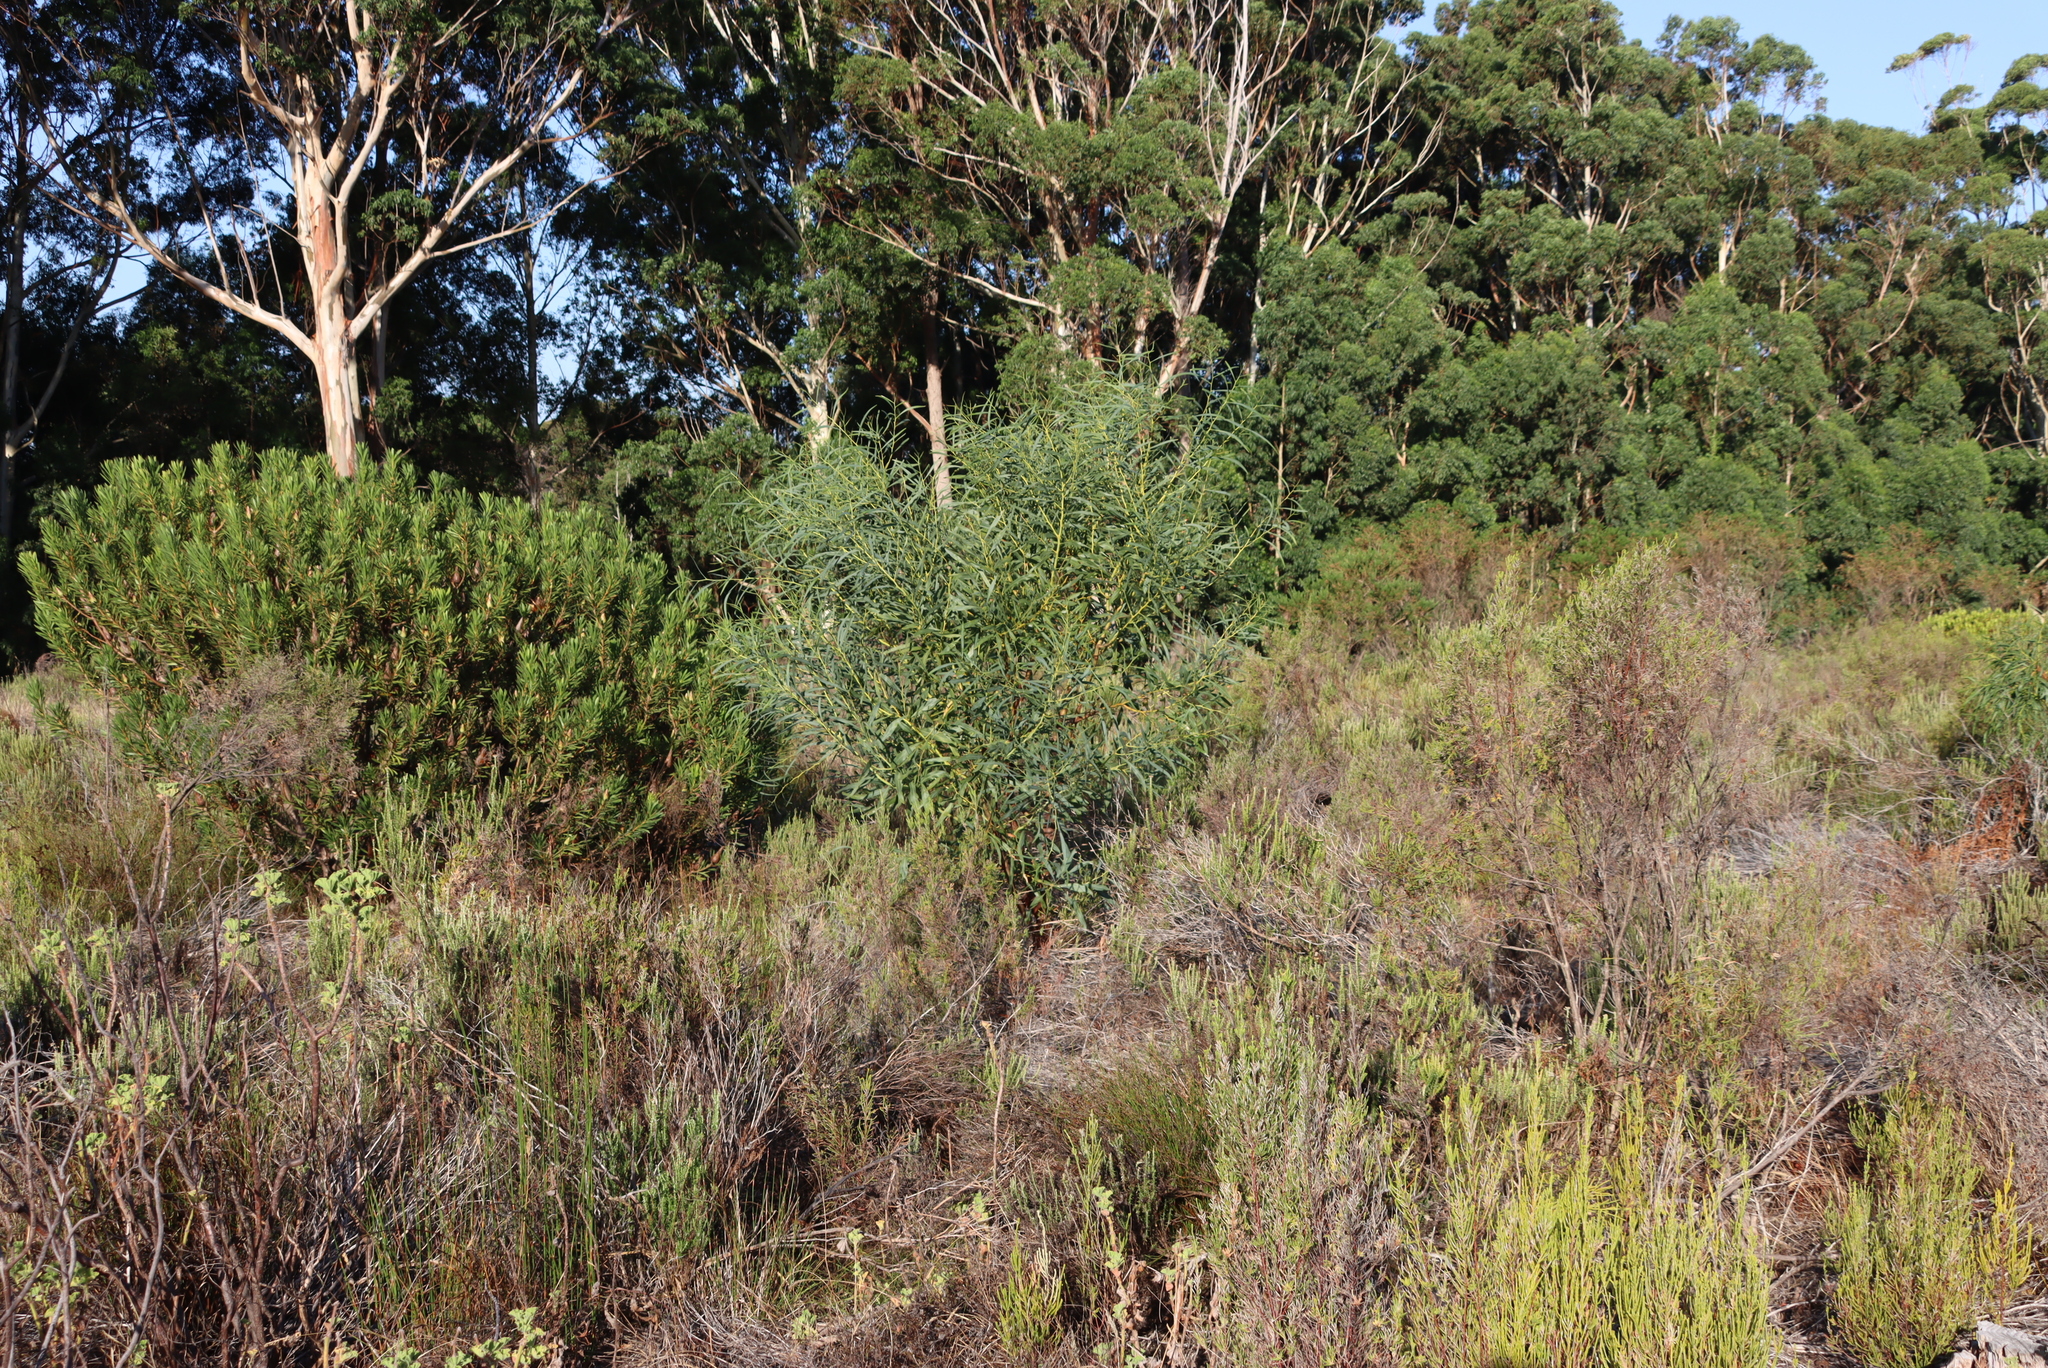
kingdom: Plantae
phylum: Tracheophyta
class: Magnoliopsida
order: Fabales
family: Fabaceae
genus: Acacia
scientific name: Acacia saligna
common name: Orange wattle
